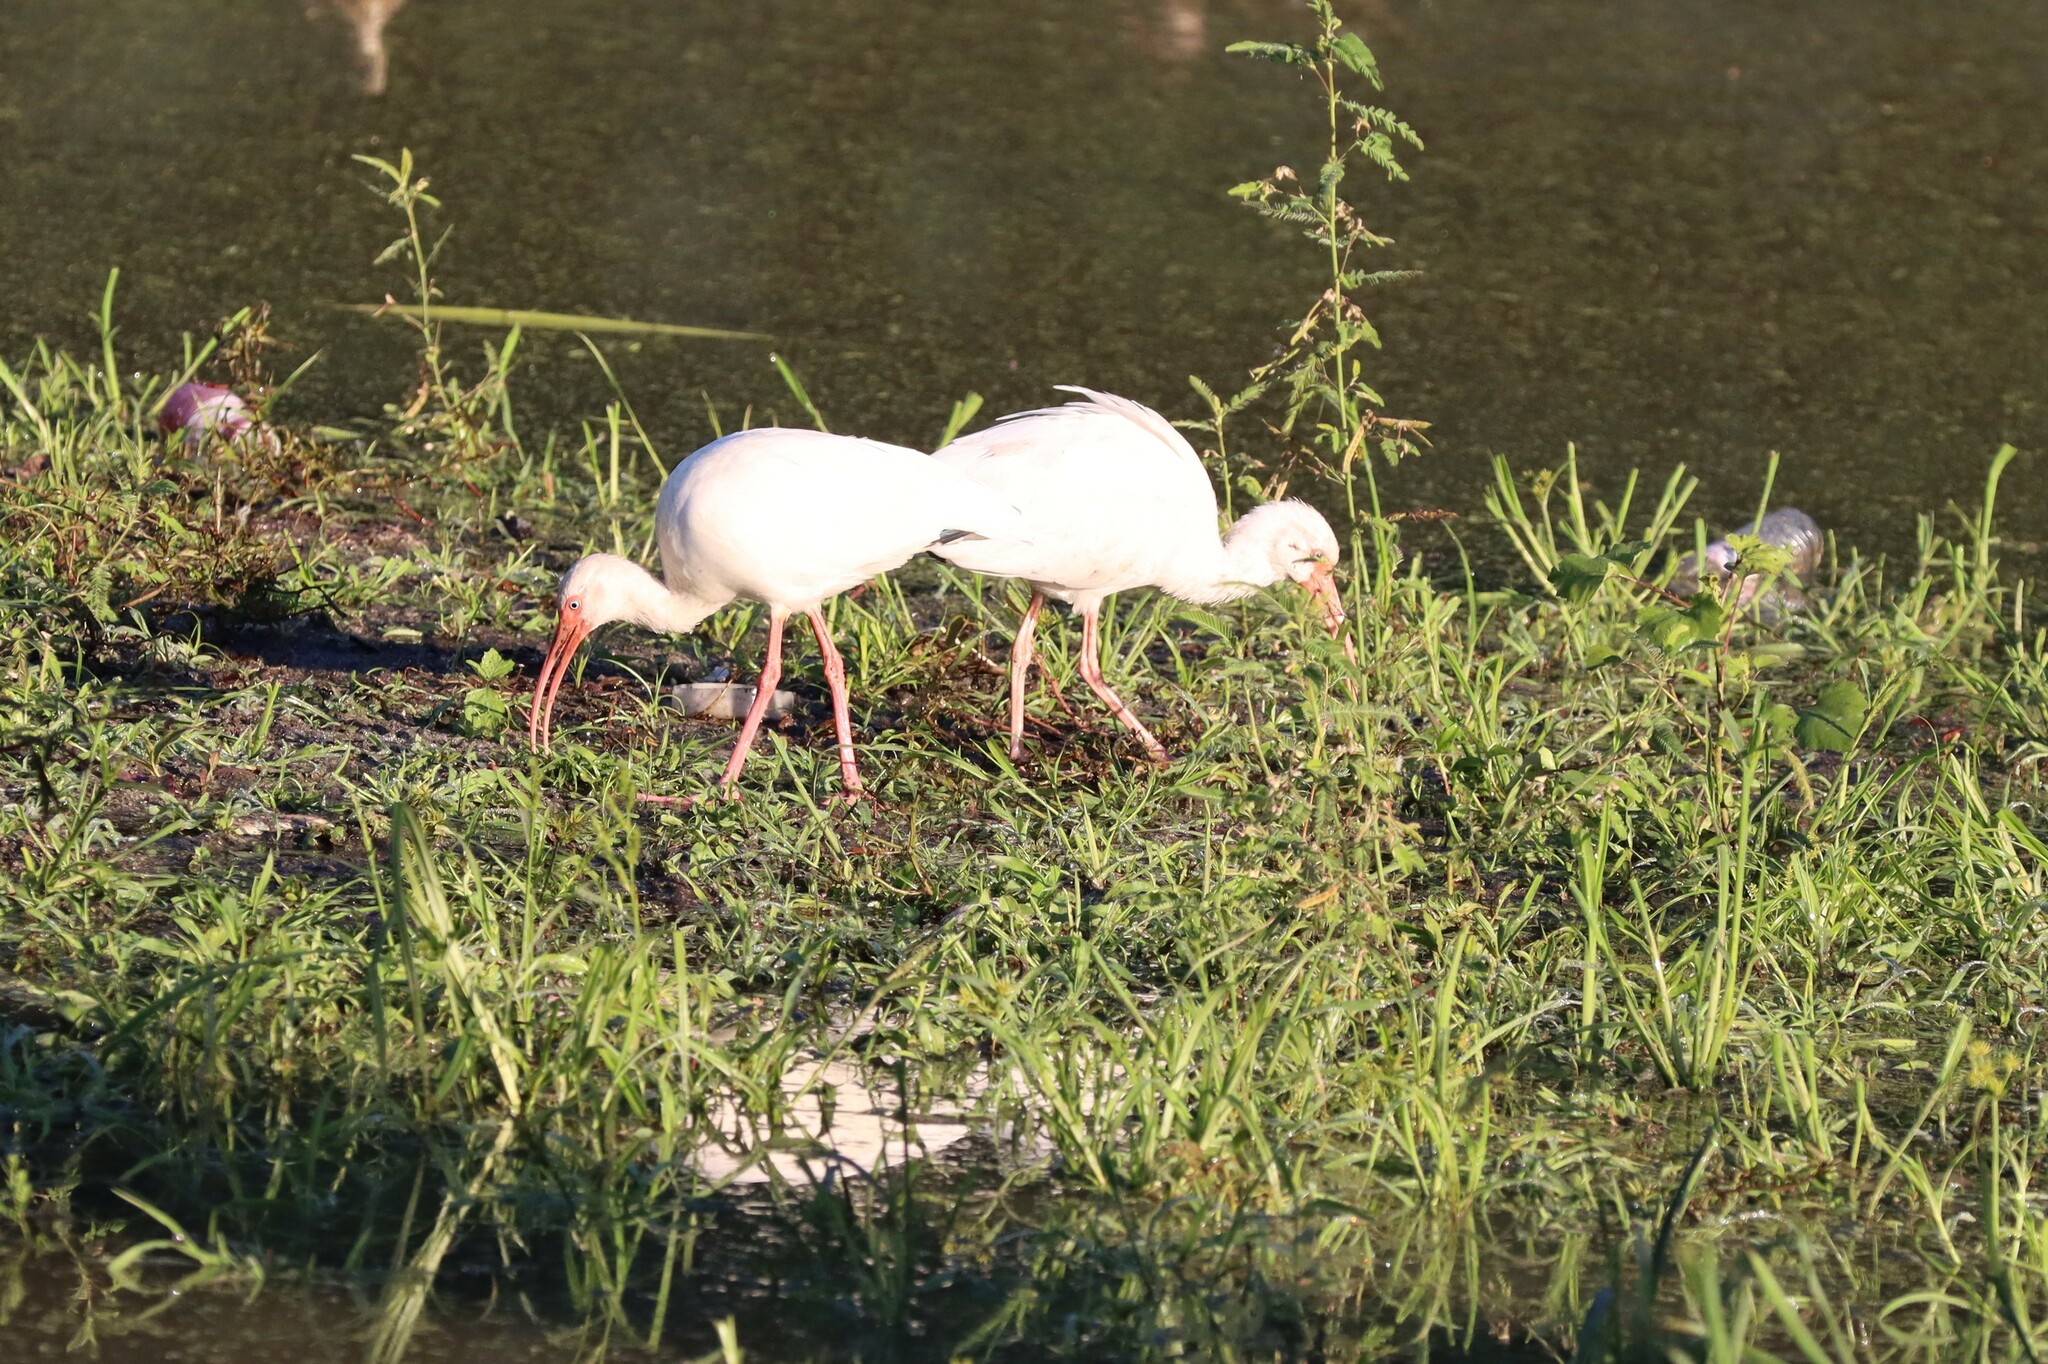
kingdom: Animalia
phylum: Chordata
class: Aves
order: Pelecaniformes
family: Threskiornithidae
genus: Eudocimus
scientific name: Eudocimus albus
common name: White ibis
